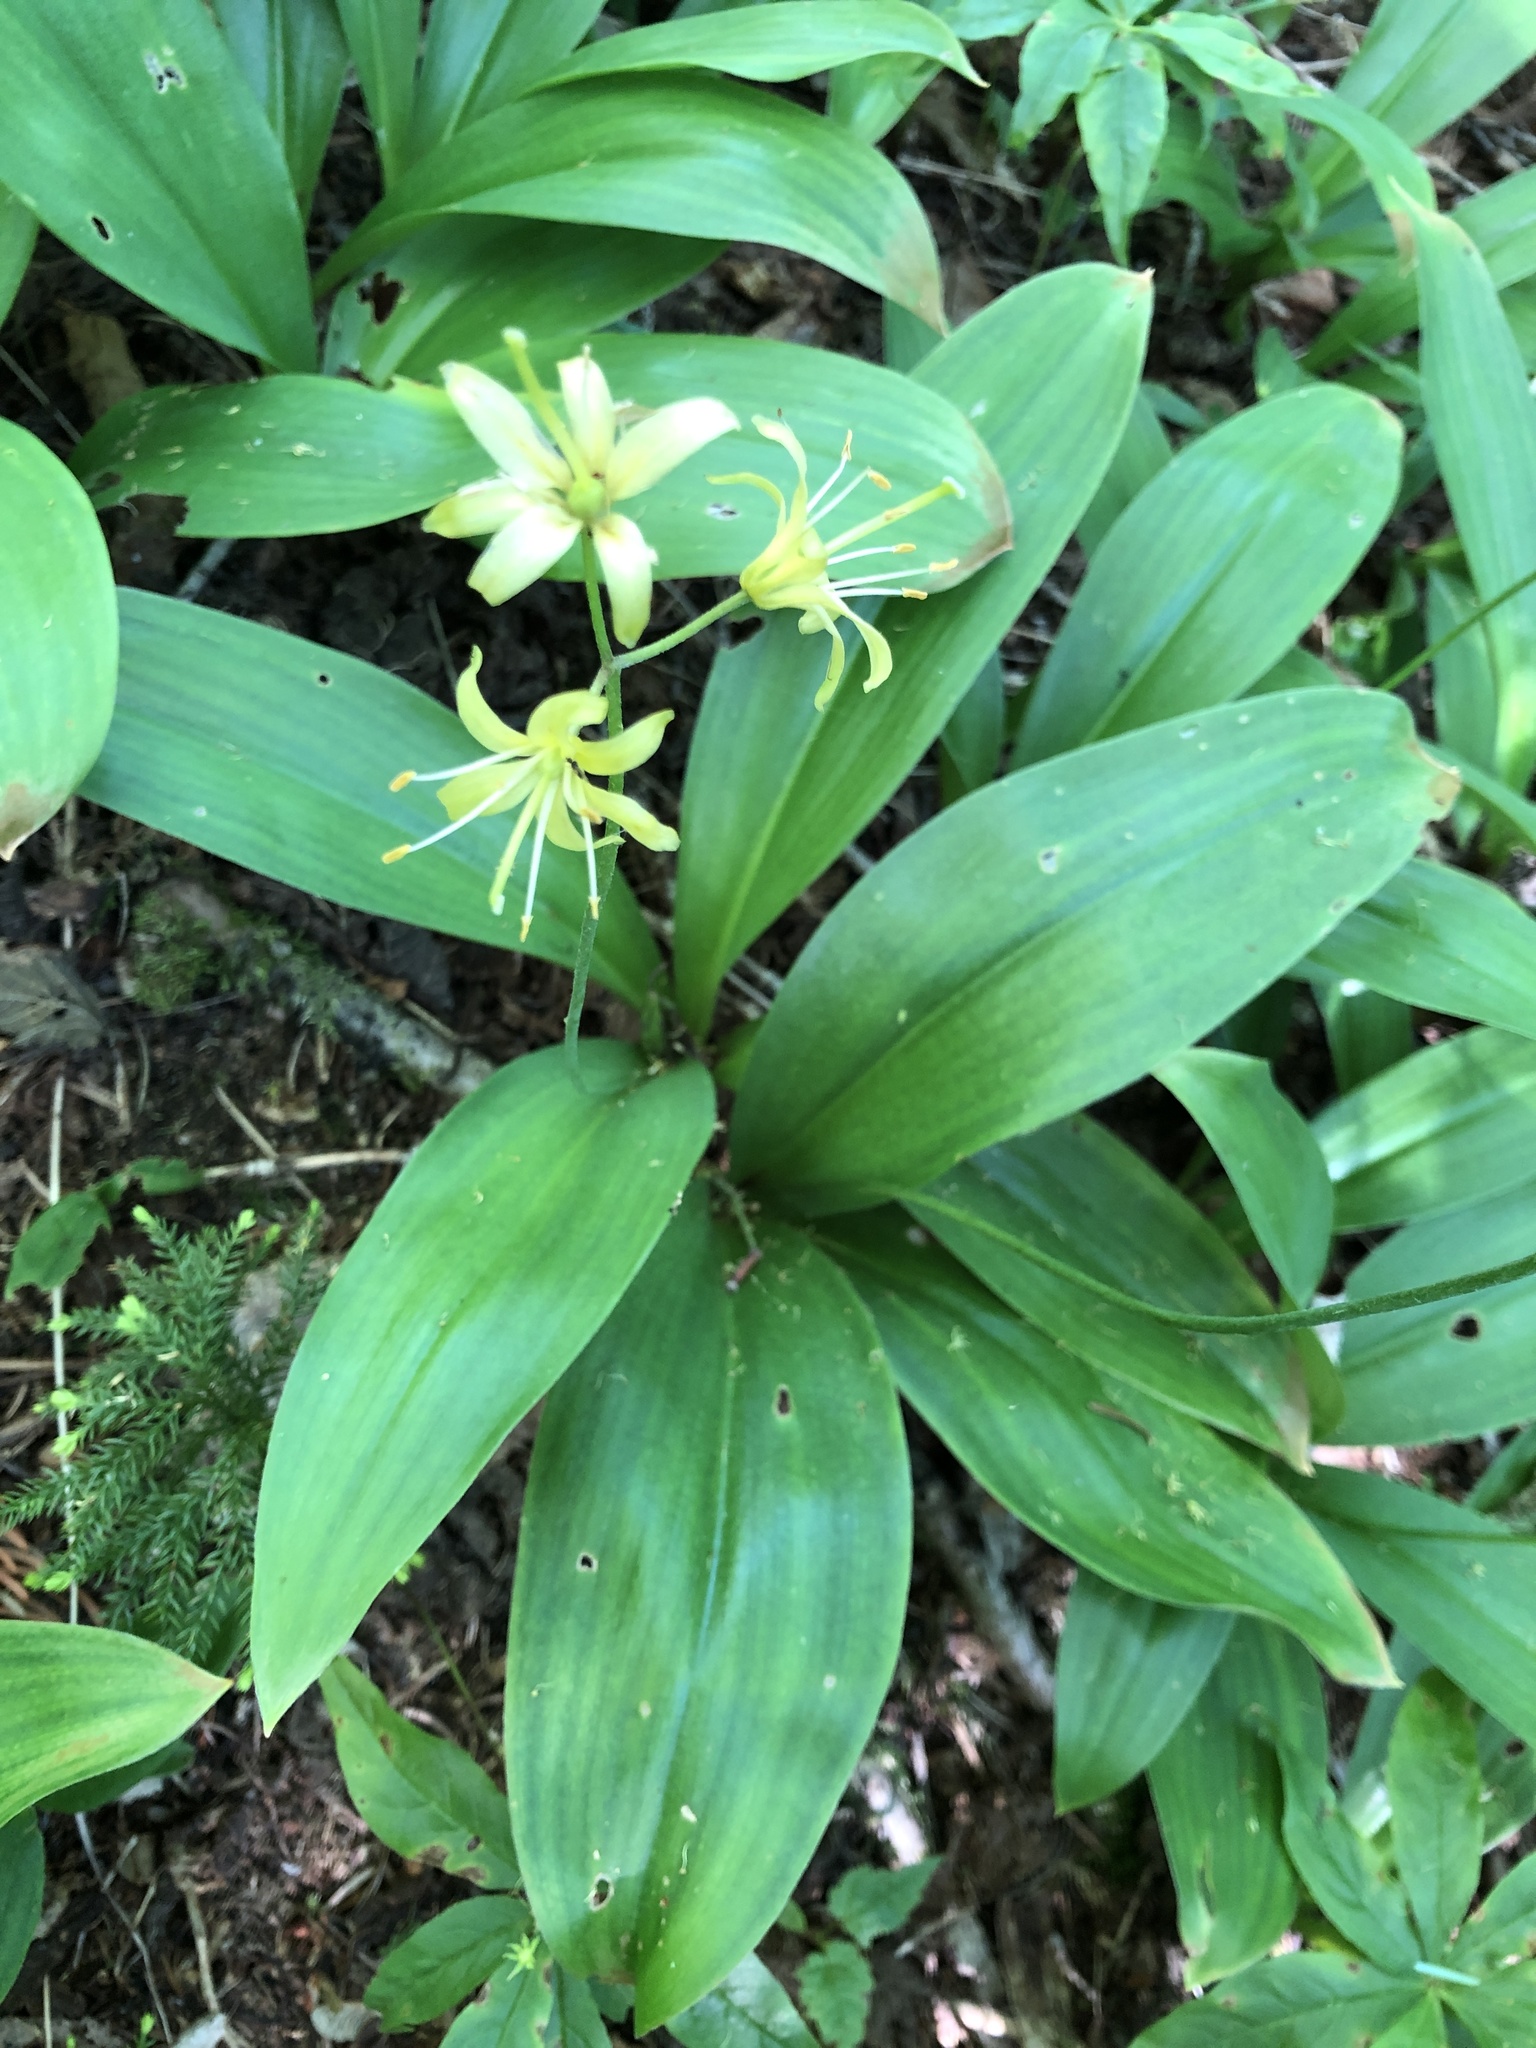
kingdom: Plantae
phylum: Tracheophyta
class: Liliopsida
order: Liliales
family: Liliaceae
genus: Clintonia
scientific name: Clintonia borealis
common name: Yellow clintonia
